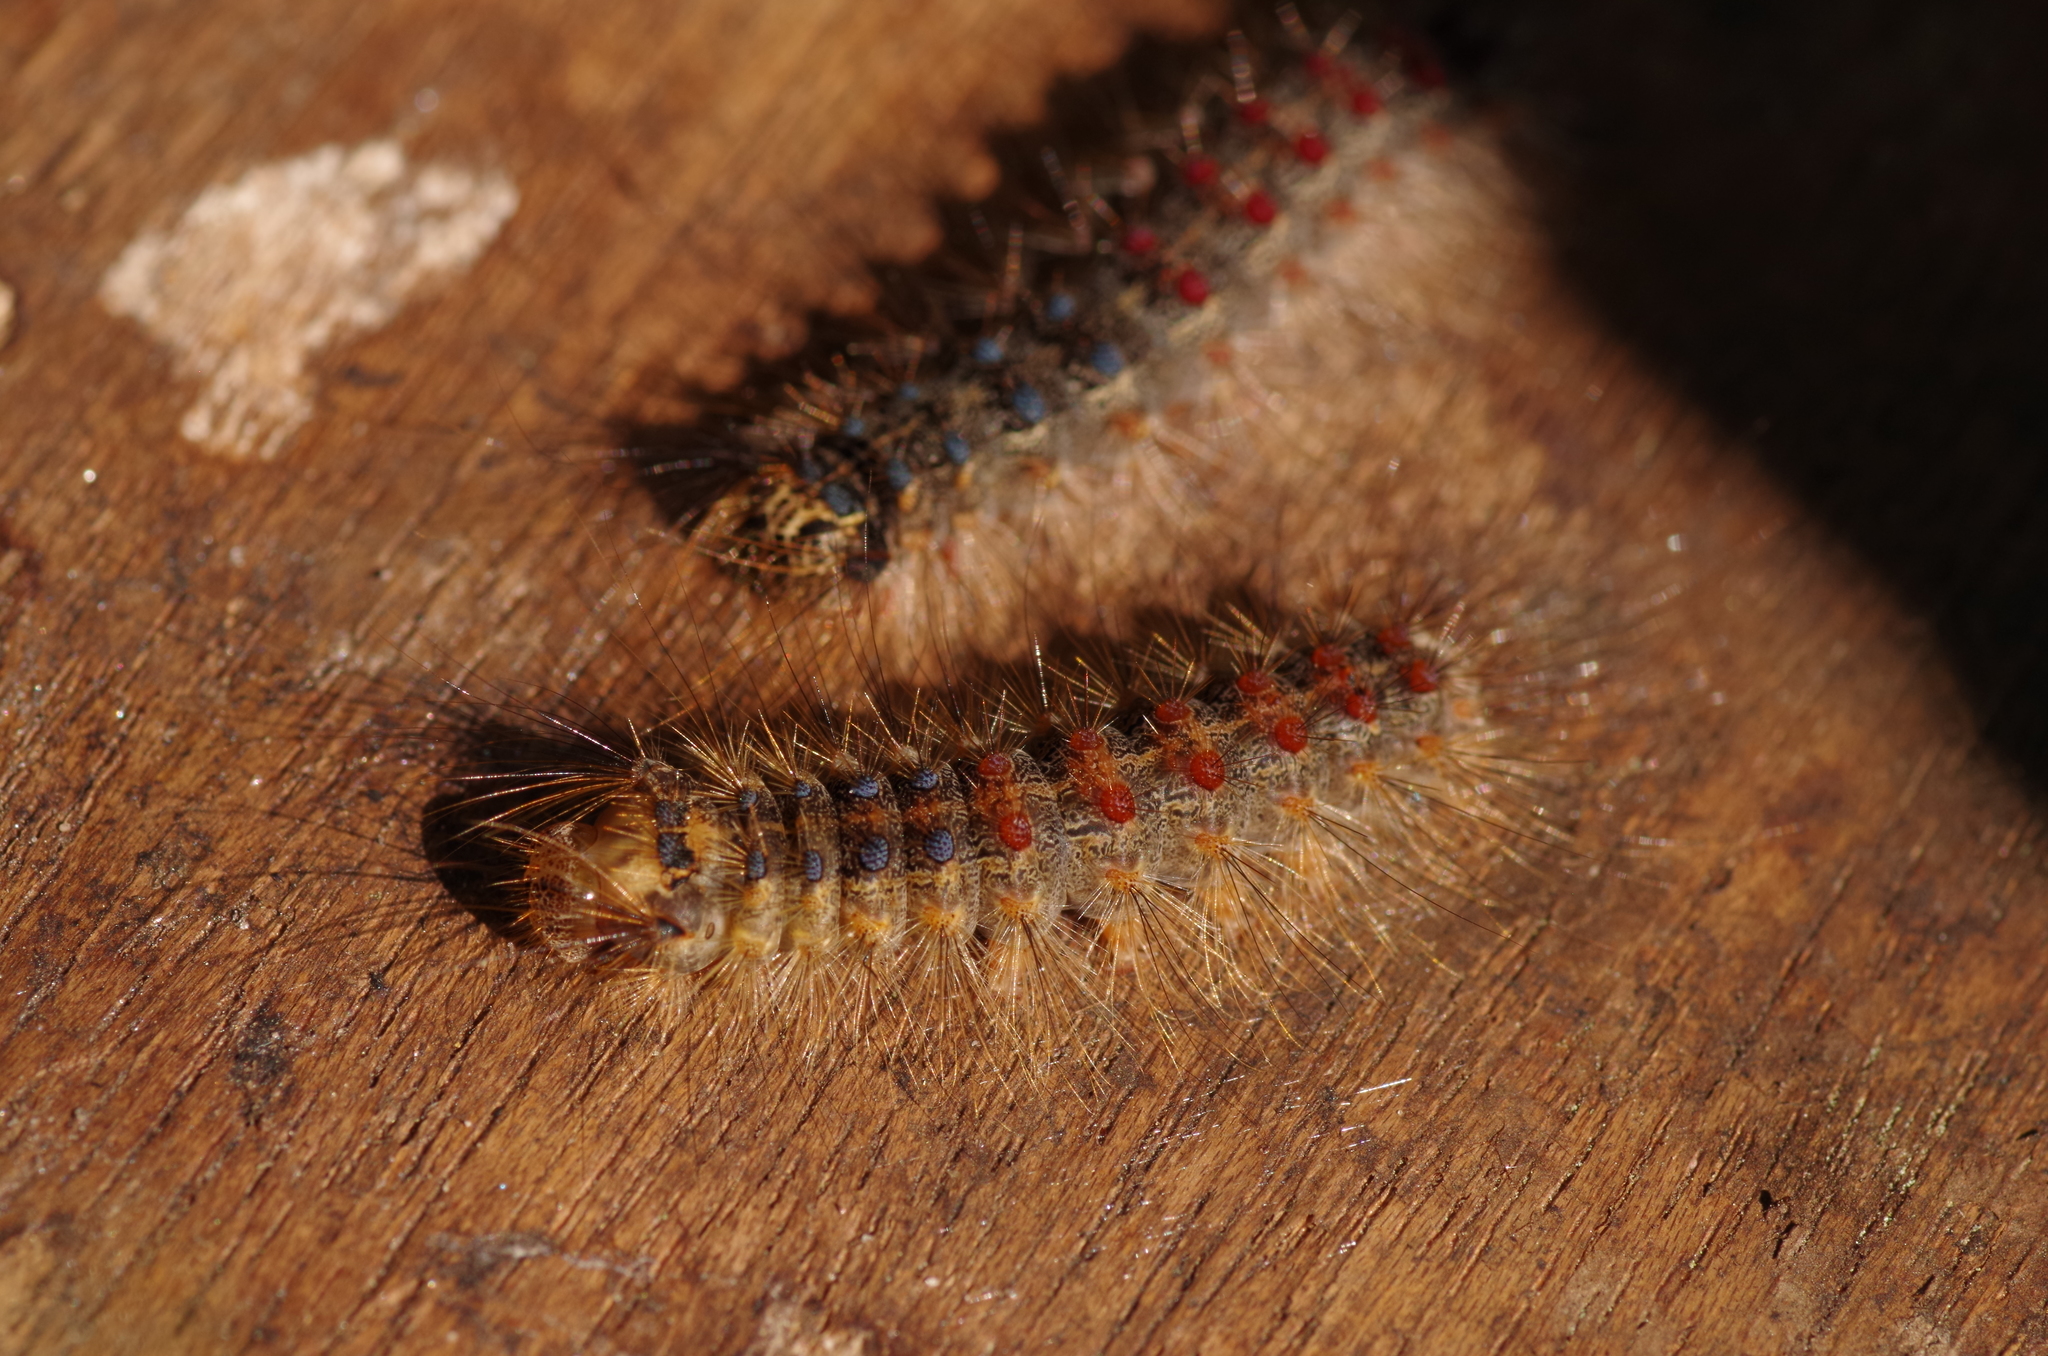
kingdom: Animalia
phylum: Arthropoda
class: Insecta
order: Lepidoptera
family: Erebidae
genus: Lymantria
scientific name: Lymantria dispar
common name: Gypsy moth
